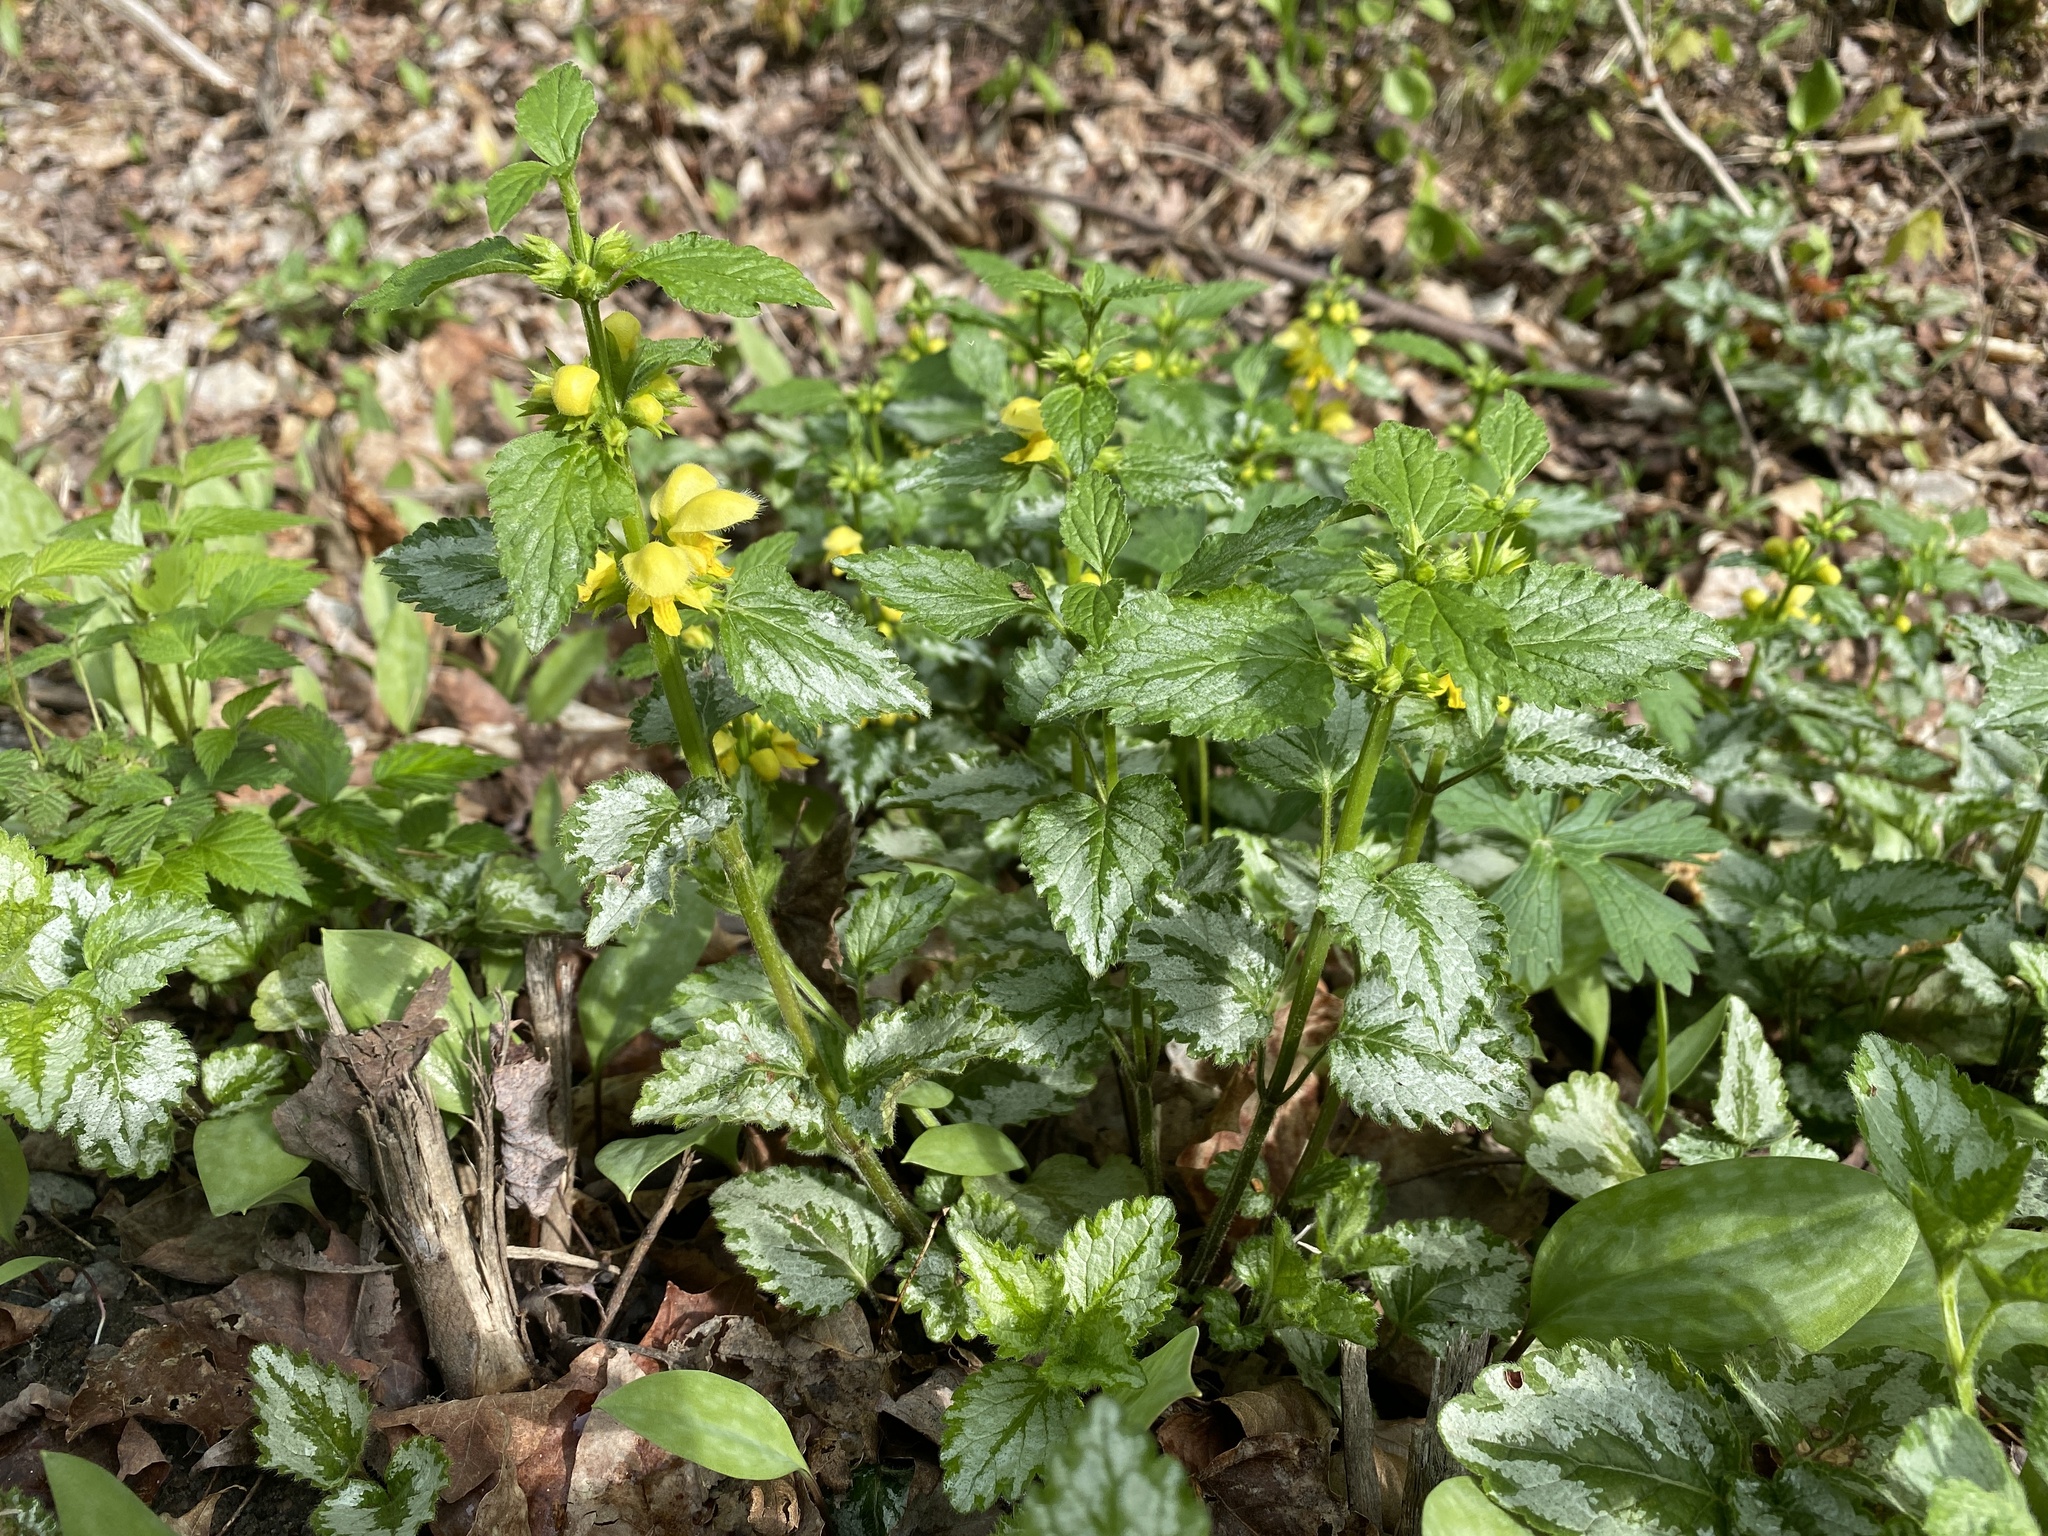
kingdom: Plantae
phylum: Tracheophyta
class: Magnoliopsida
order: Lamiales
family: Lamiaceae
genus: Lamium
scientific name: Lamium galeobdolon
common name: Yellow archangel
